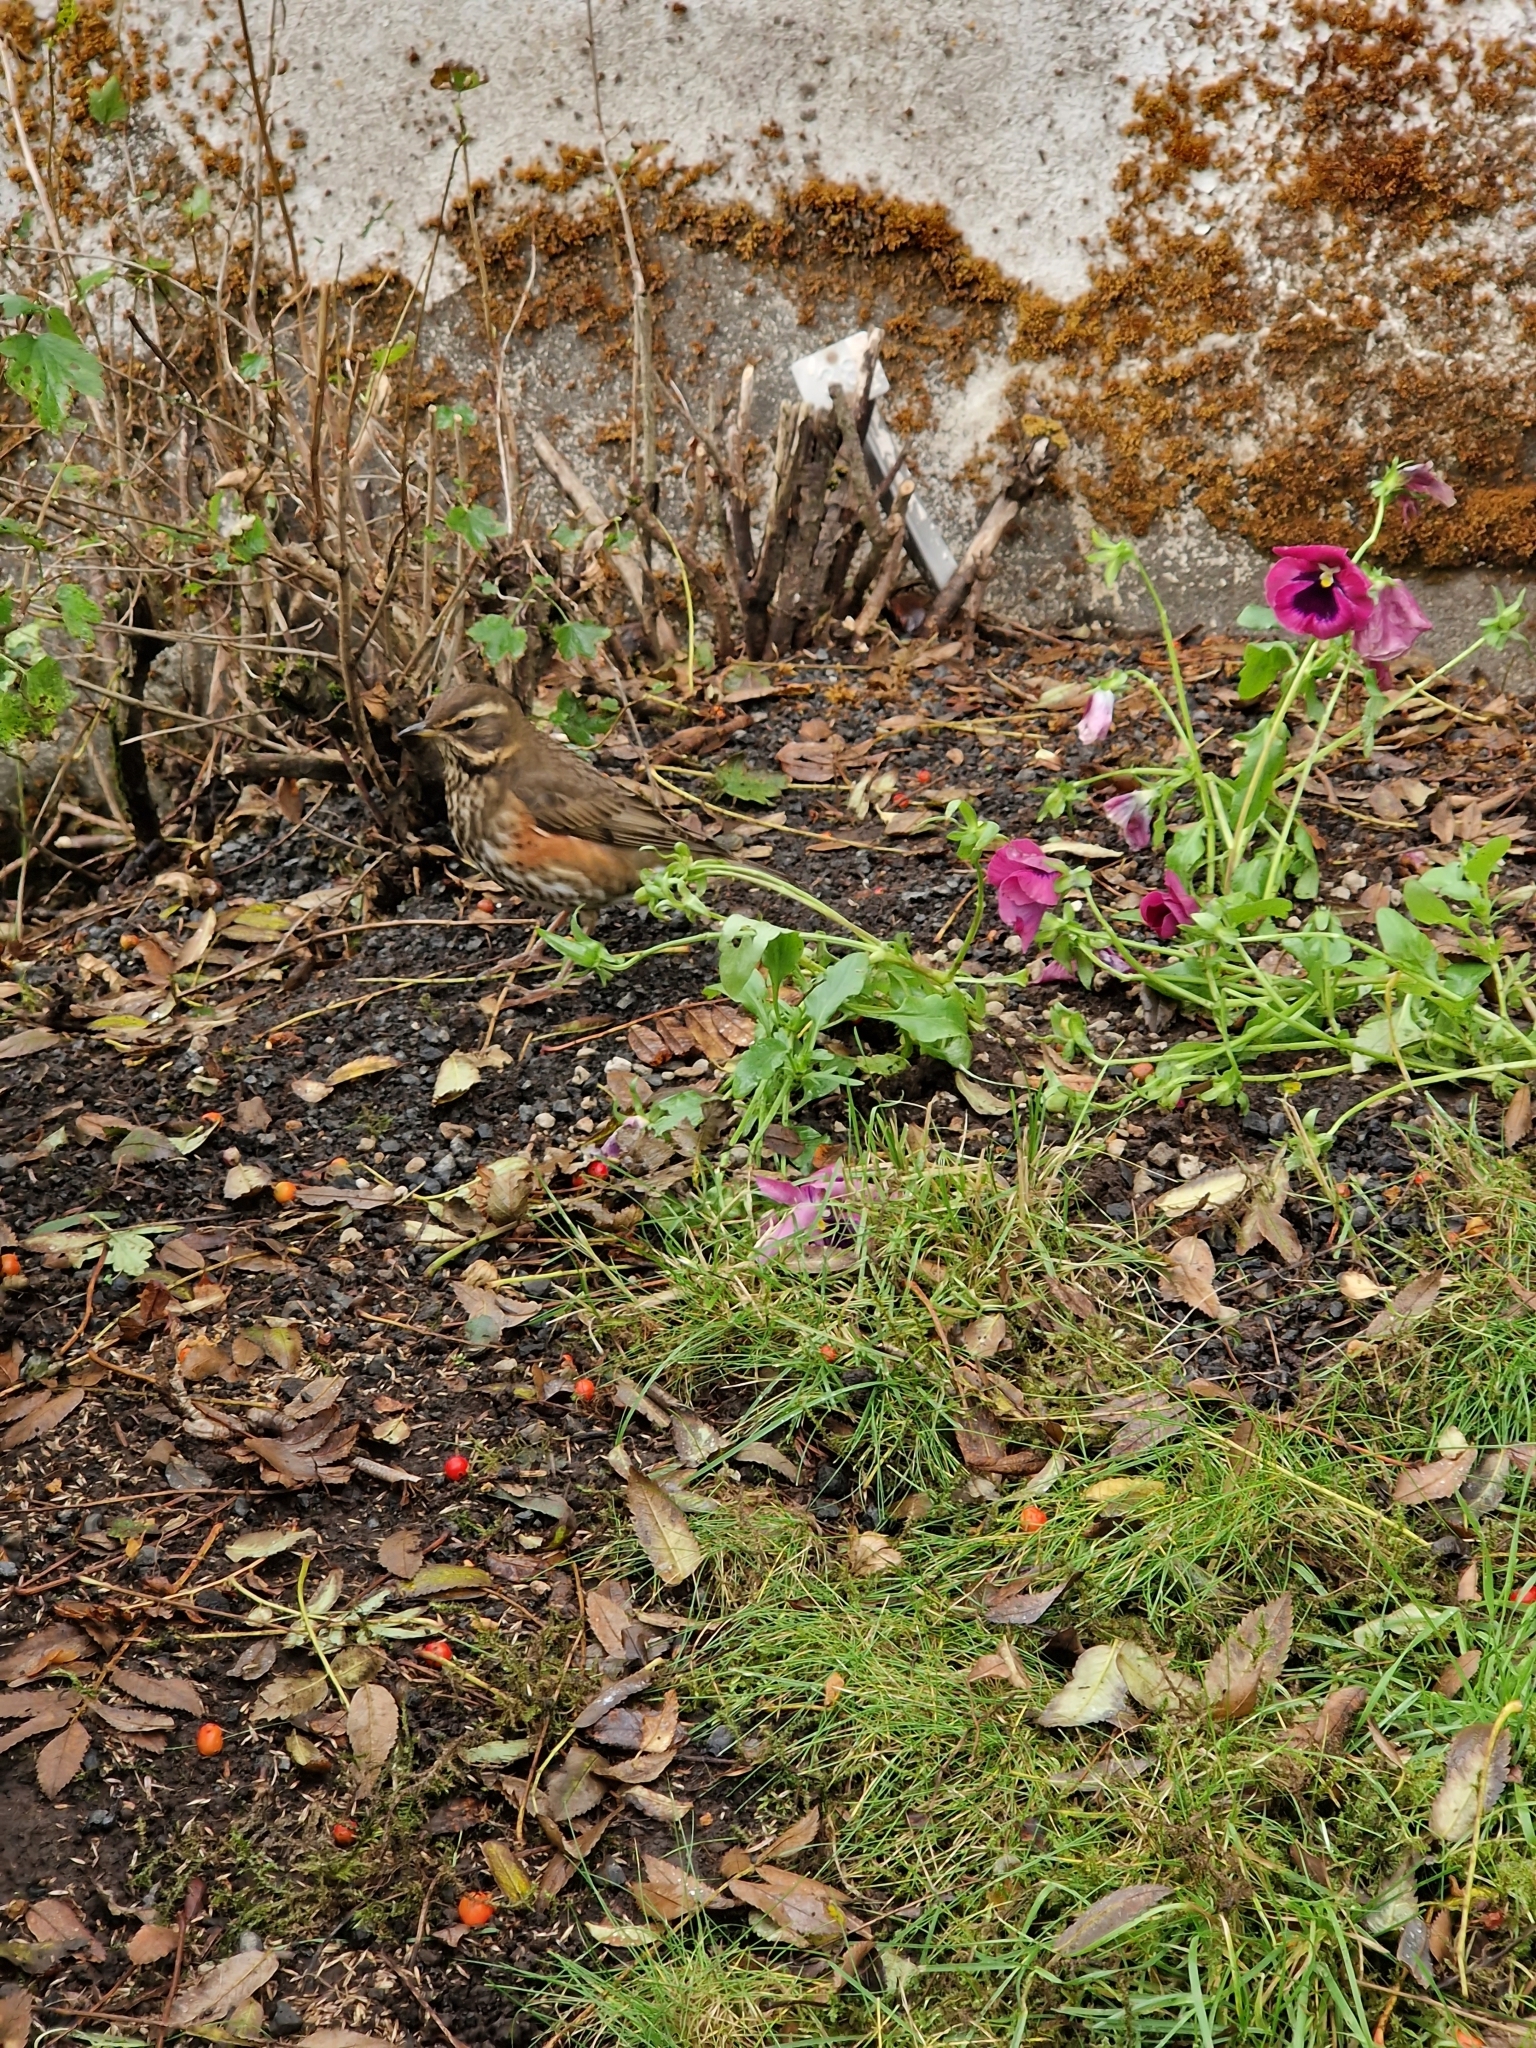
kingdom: Animalia
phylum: Chordata
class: Aves
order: Passeriformes
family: Turdidae
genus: Turdus
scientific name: Turdus iliacus
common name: Redwing
